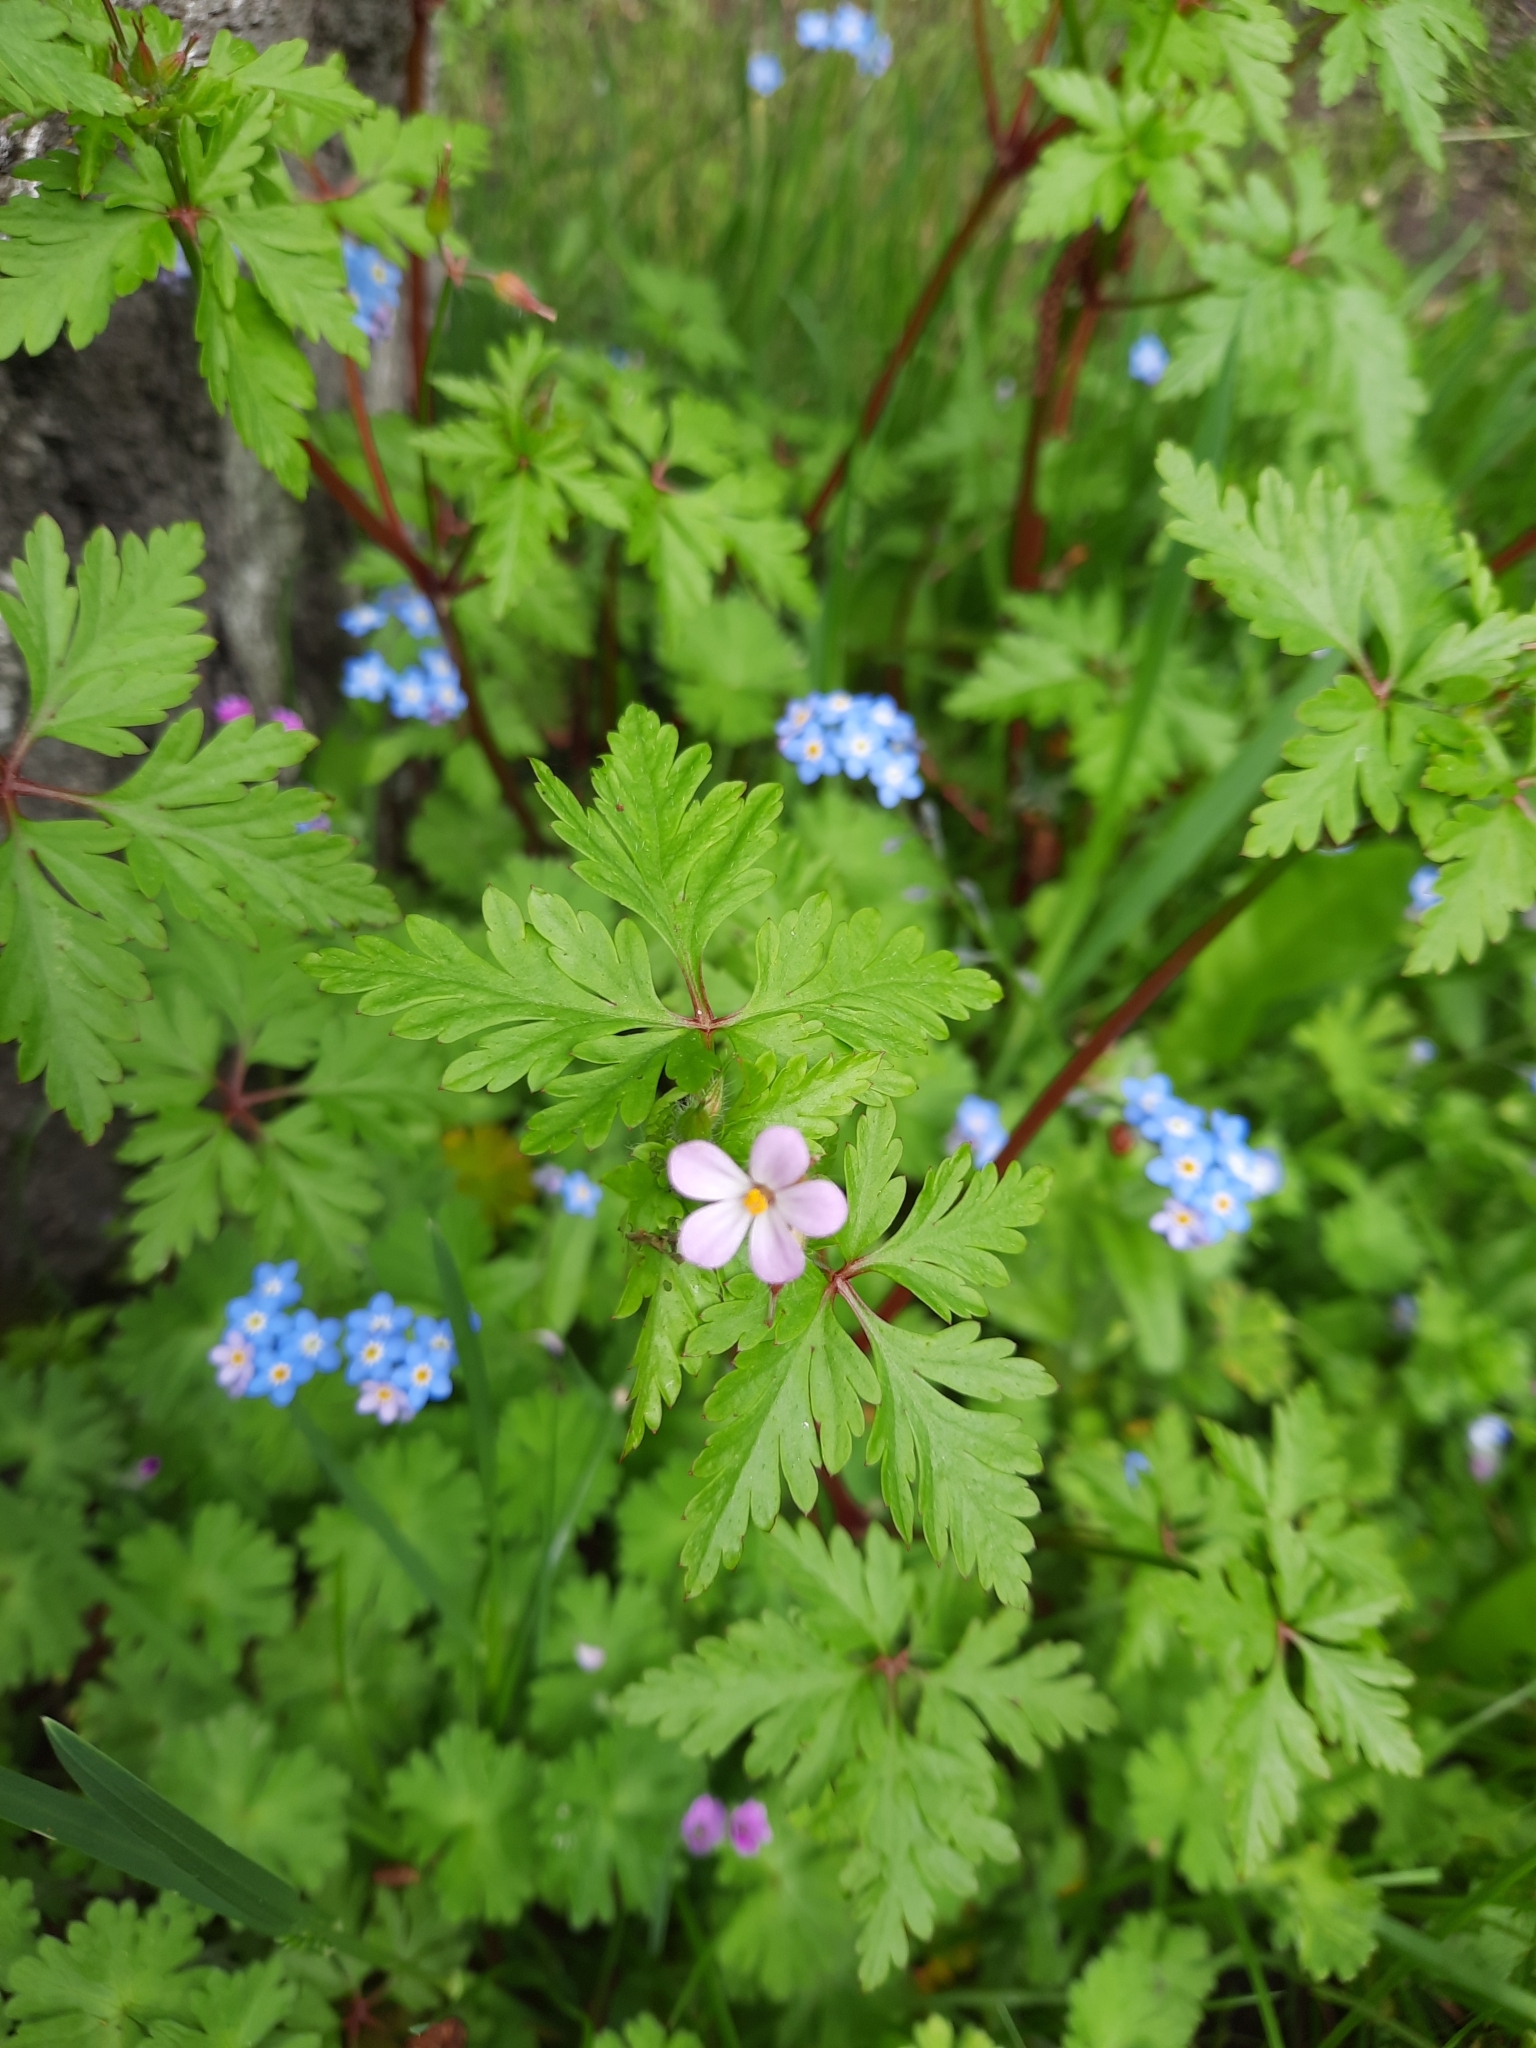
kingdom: Plantae
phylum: Tracheophyta
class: Magnoliopsida
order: Geraniales
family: Geraniaceae
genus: Geranium
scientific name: Geranium robertianum
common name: Herb-robert
